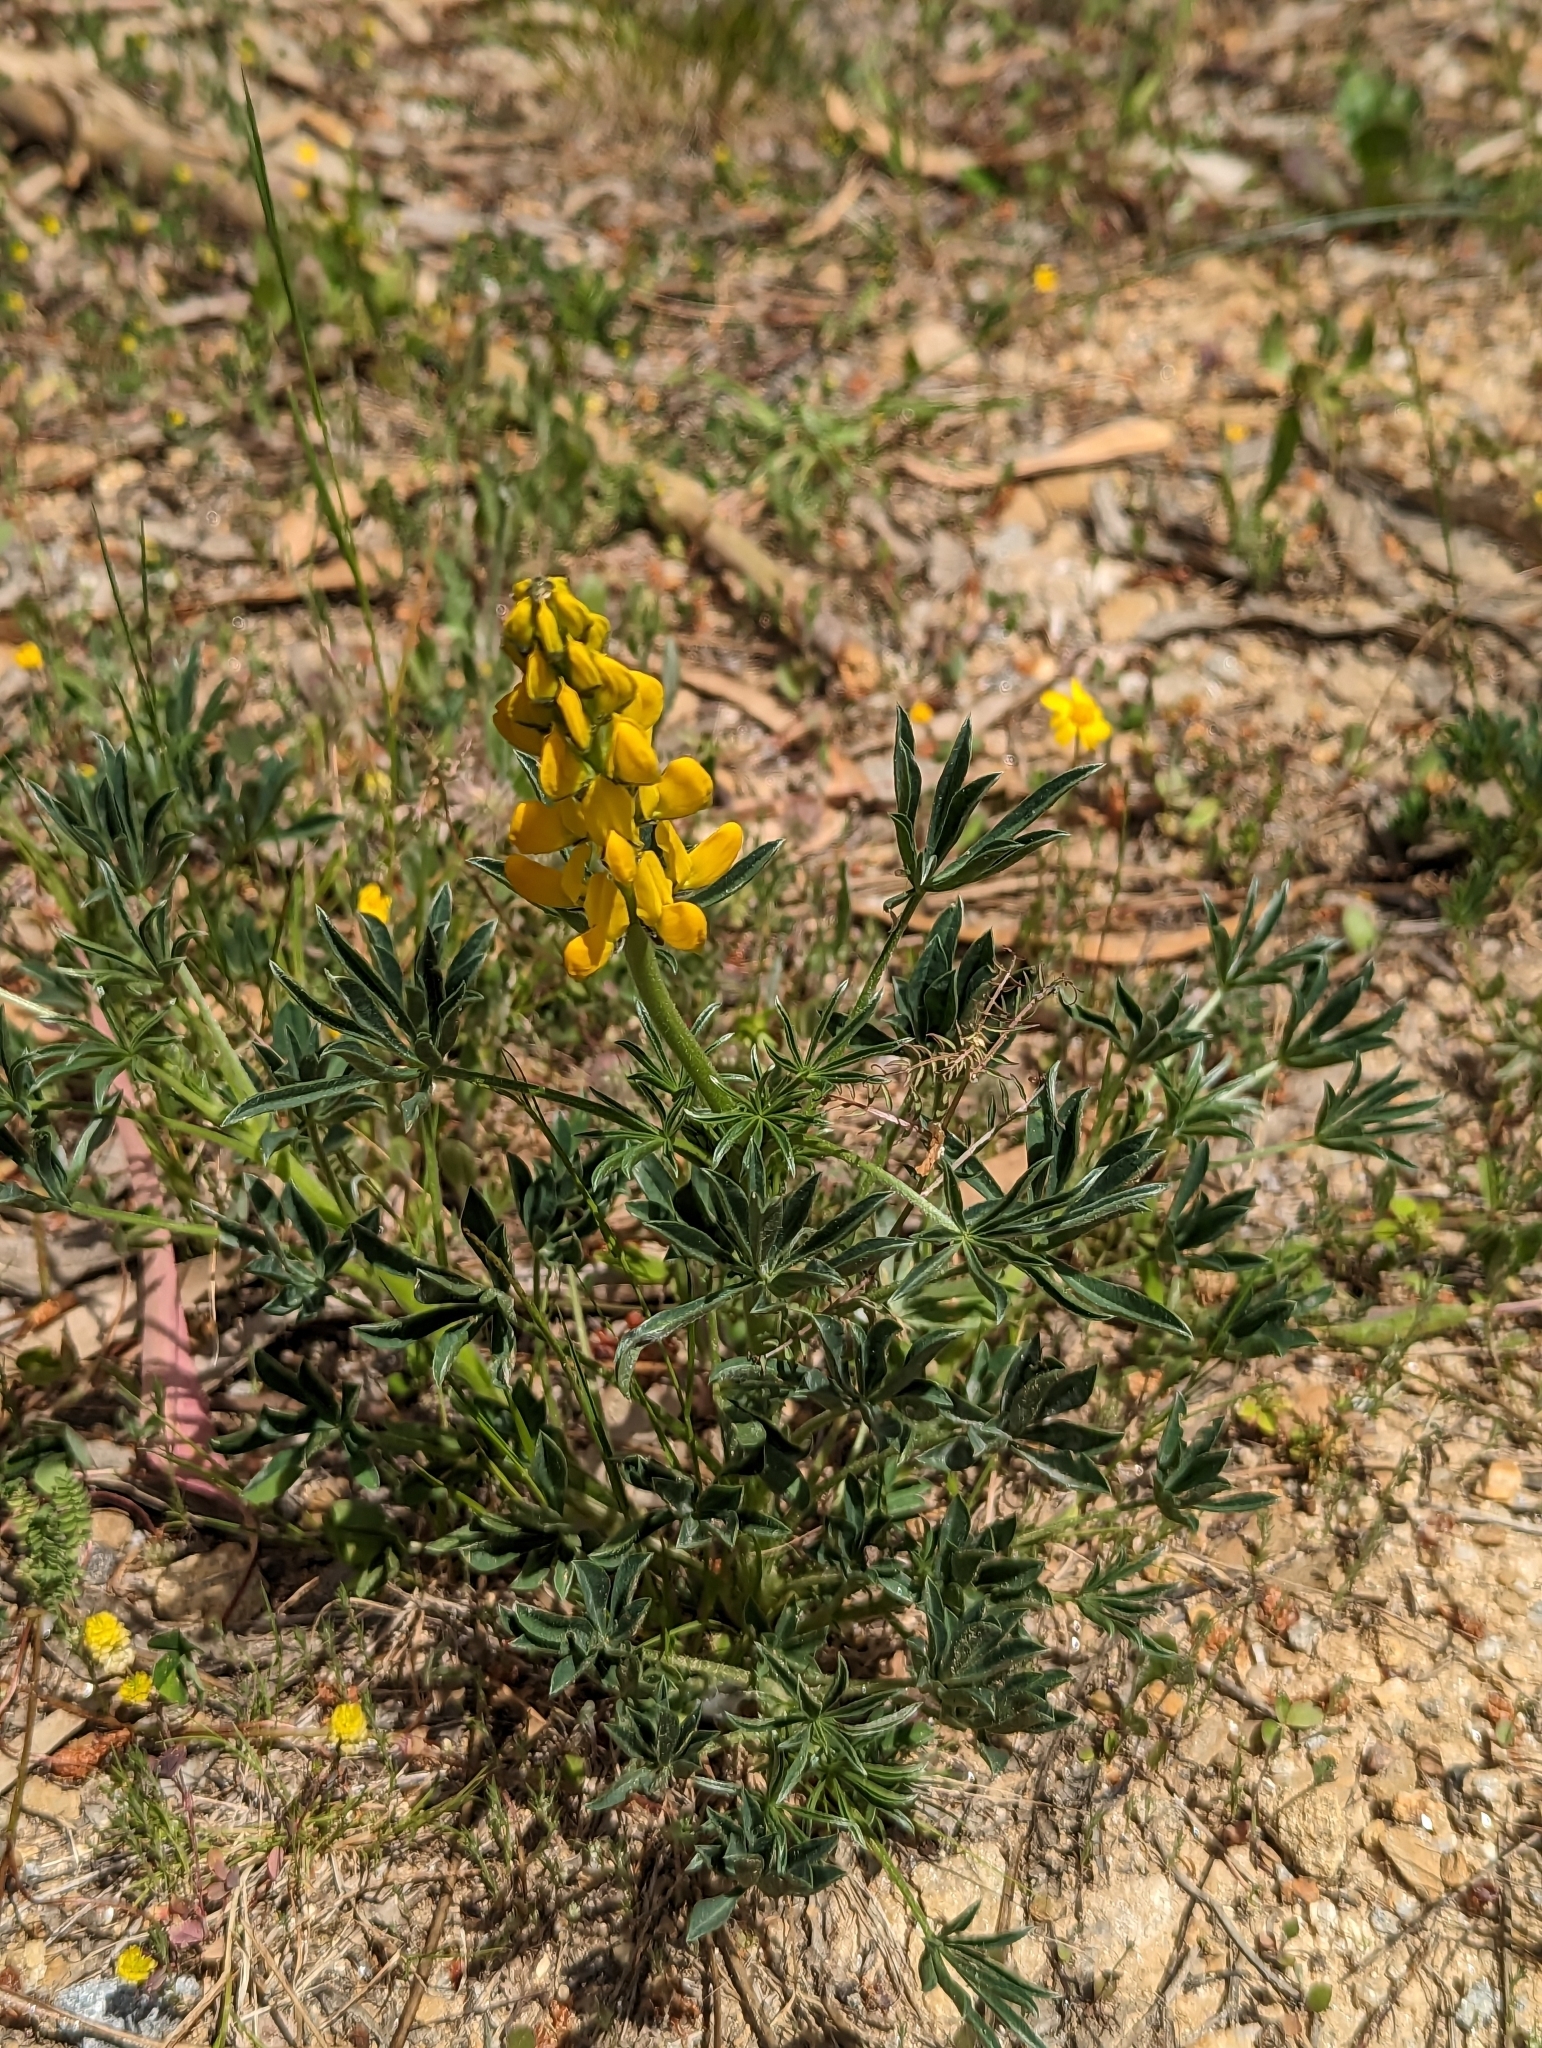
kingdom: Plantae
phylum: Tracheophyta
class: Magnoliopsida
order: Fabales
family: Fabaceae
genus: Lupinus
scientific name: Lupinus luteus
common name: European yellow lupine
